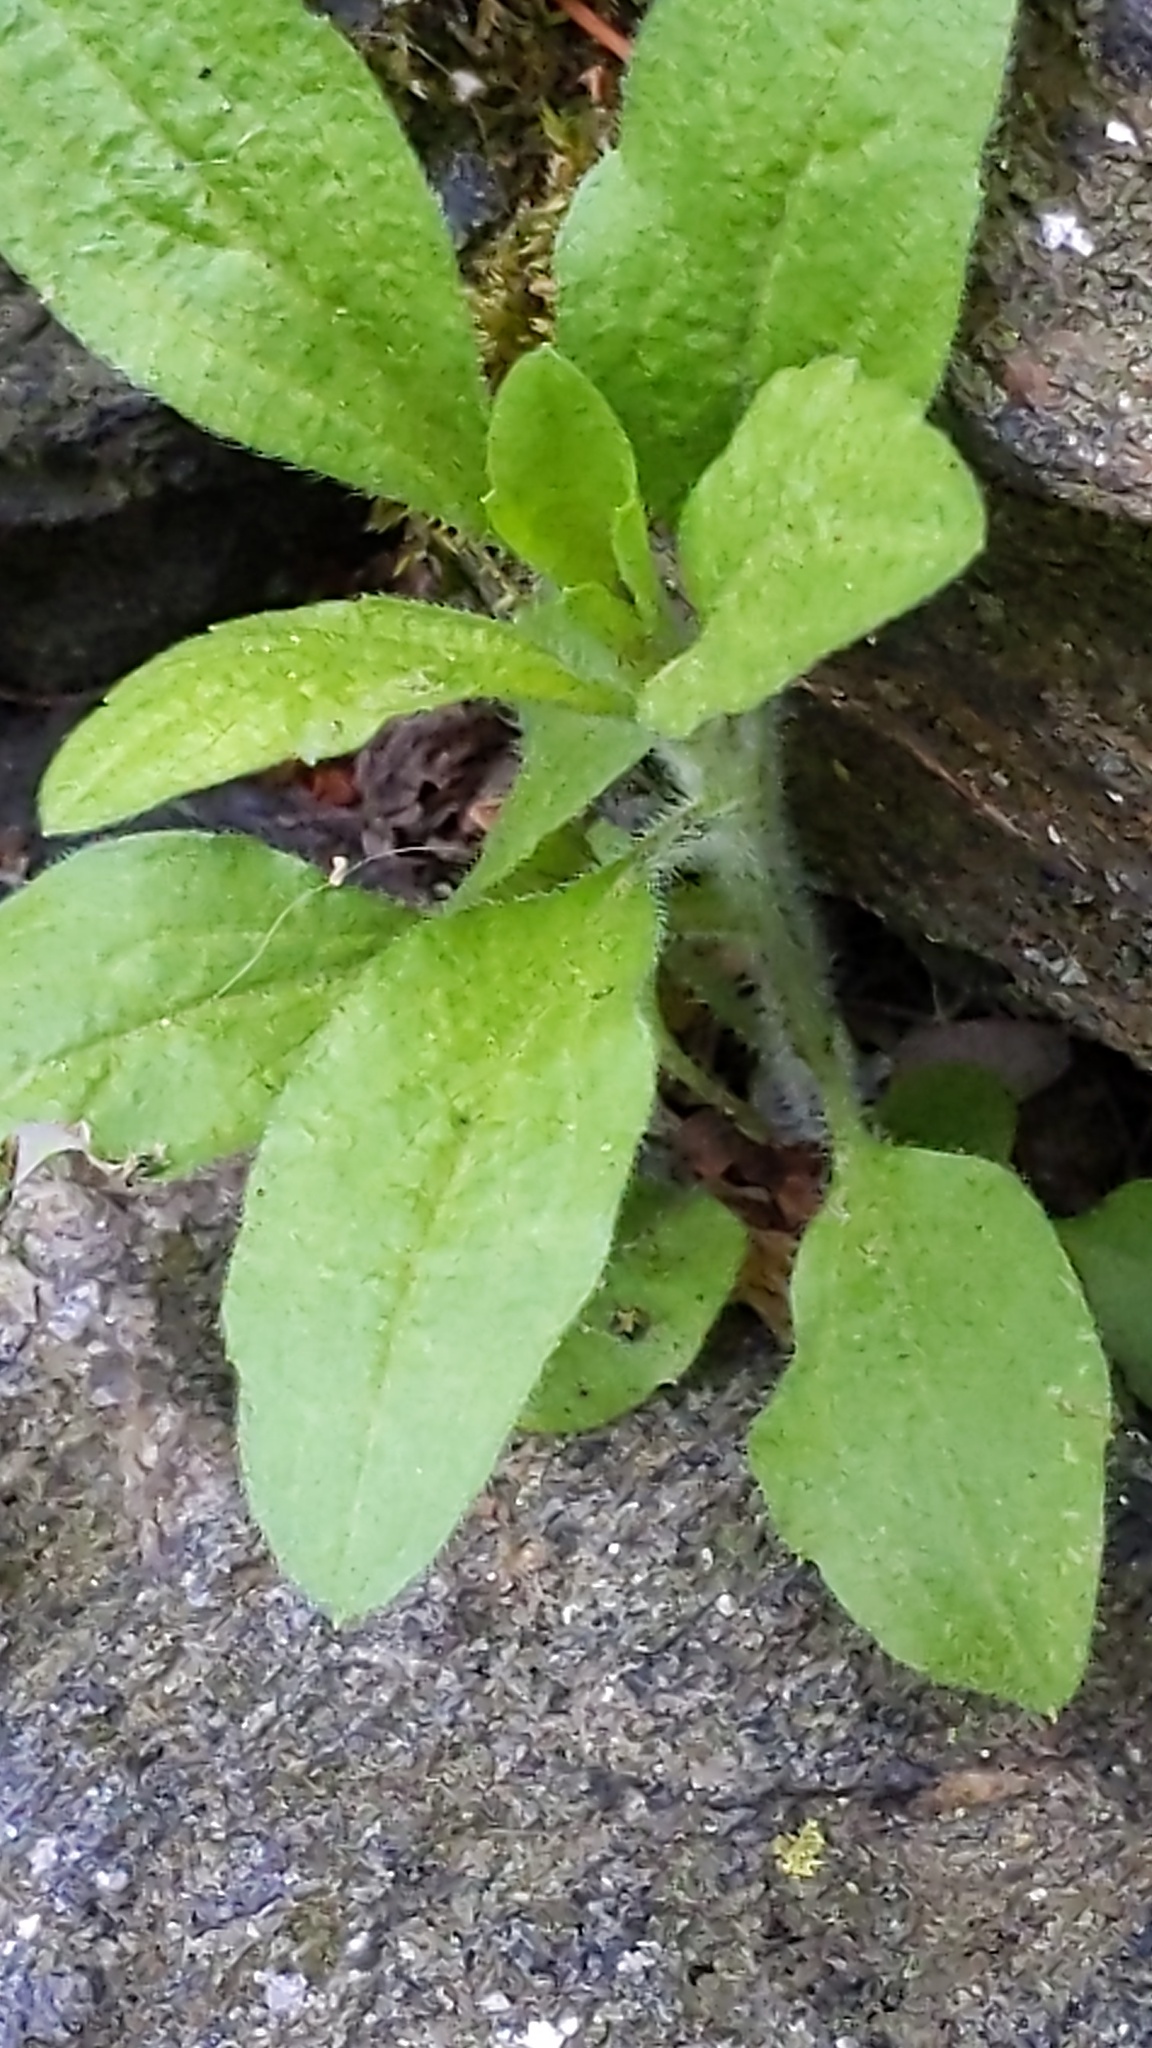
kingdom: Plantae
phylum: Tracheophyta
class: Magnoliopsida
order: Asterales
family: Asteraceae
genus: Erigeron
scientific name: Erigeron canadensis
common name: Canadian fleabane
